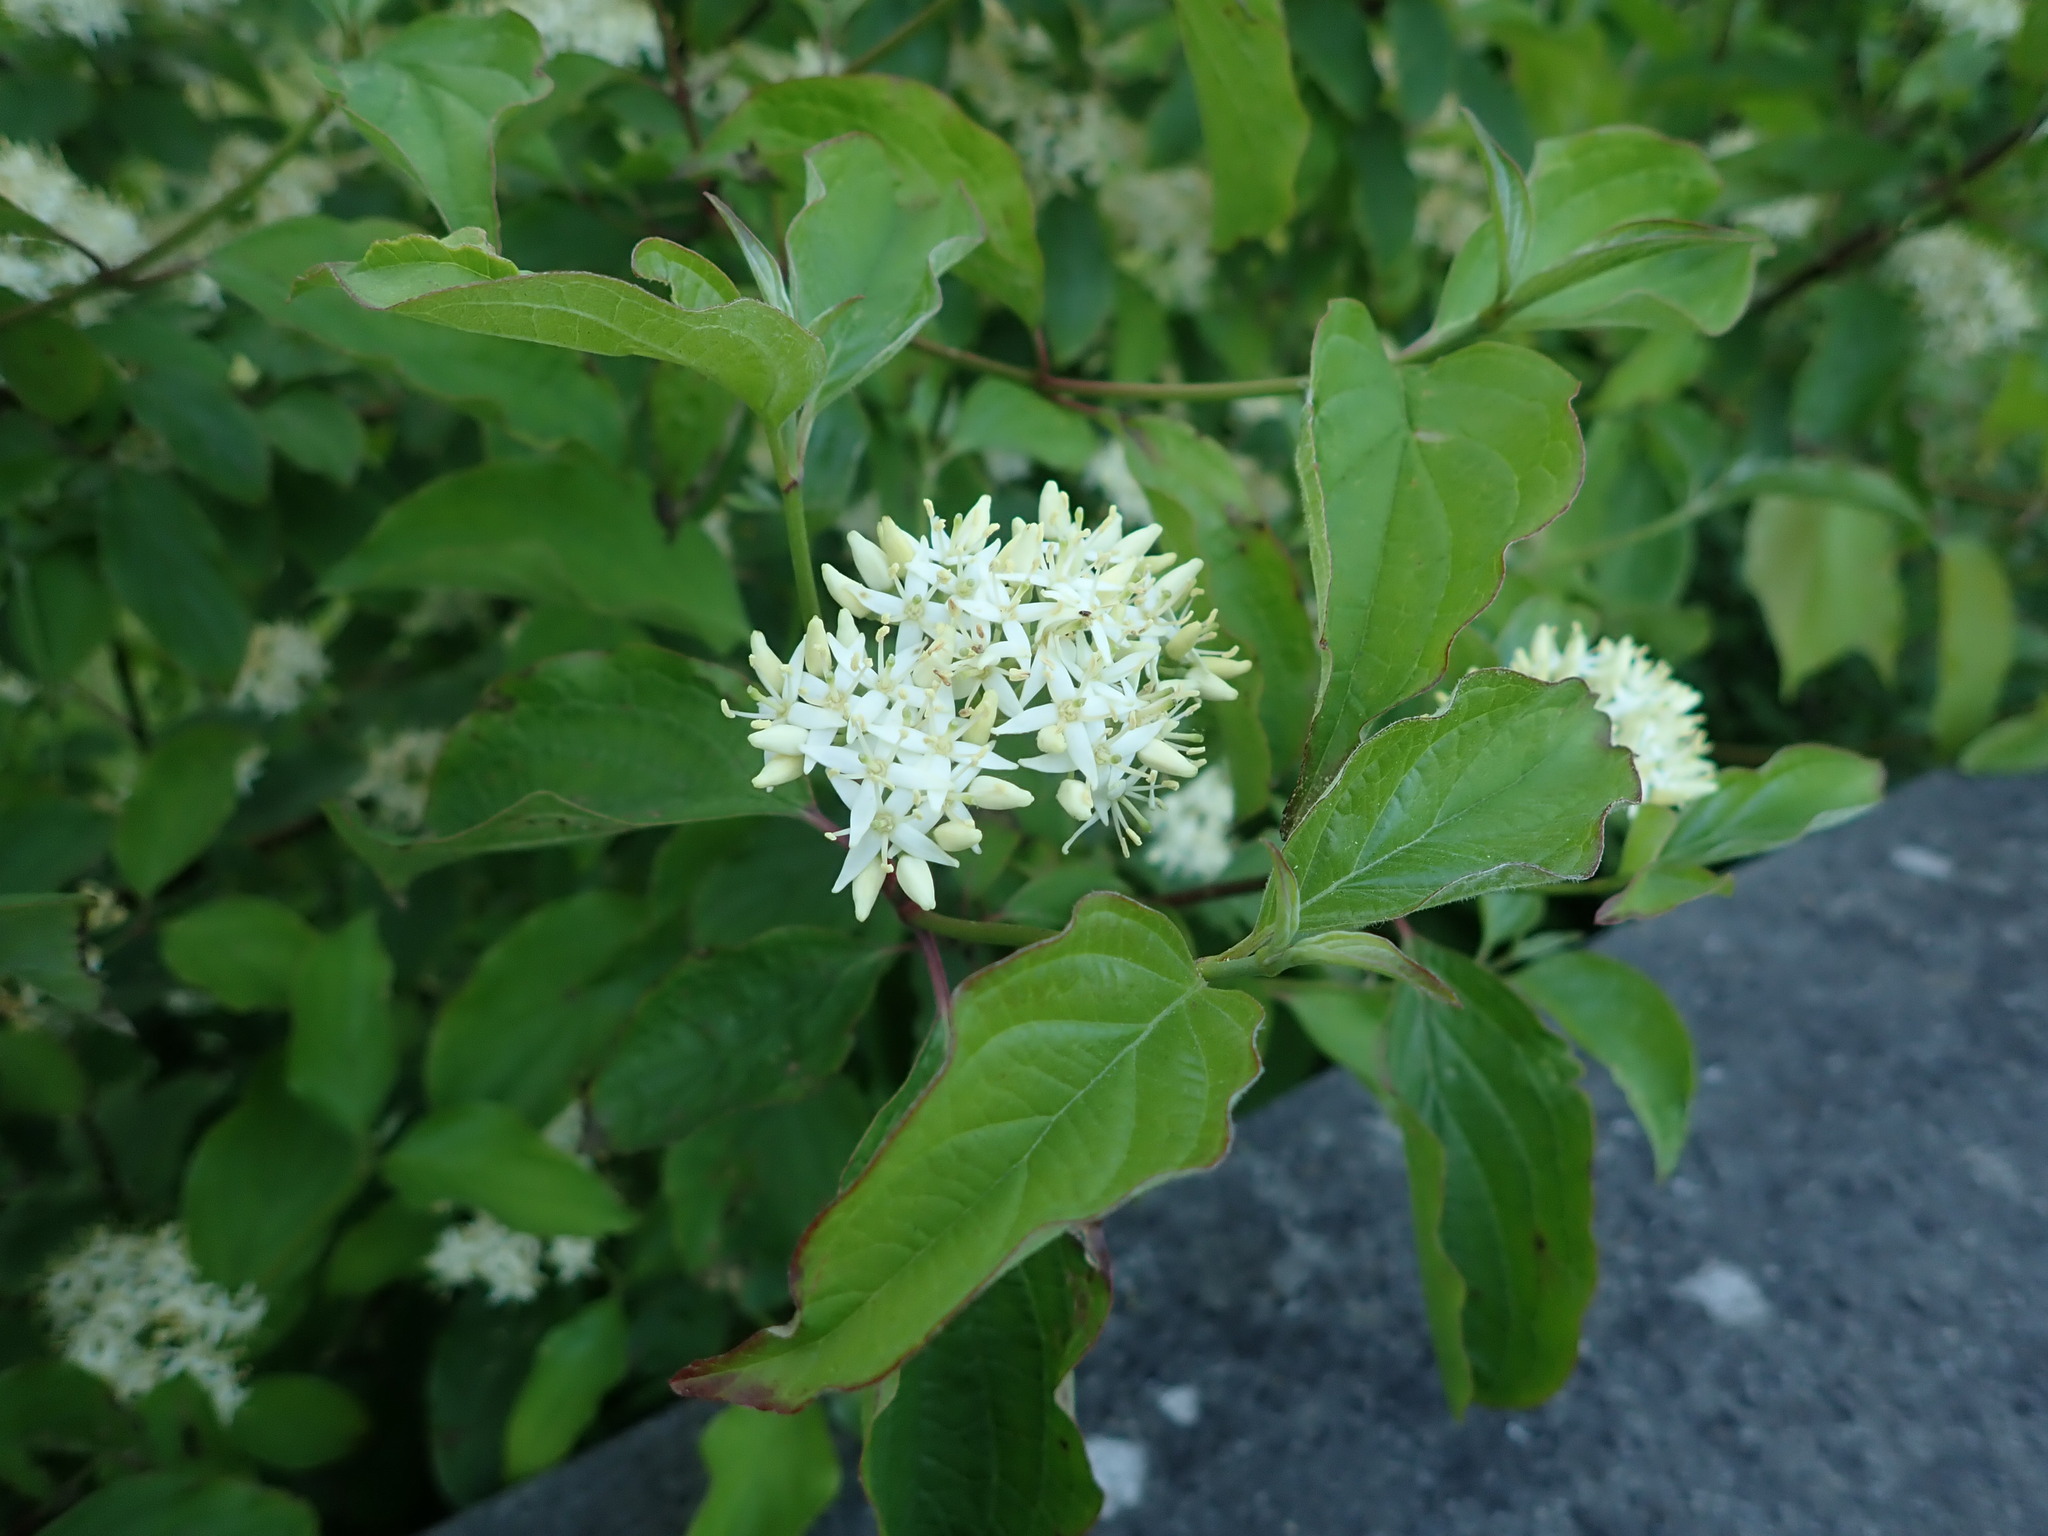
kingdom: Plantae
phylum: Tracheophyta
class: Magnoliopsida
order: Cornales
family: Cornaceae
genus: Cornus
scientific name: Cornus sanguinea
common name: Dogwood
